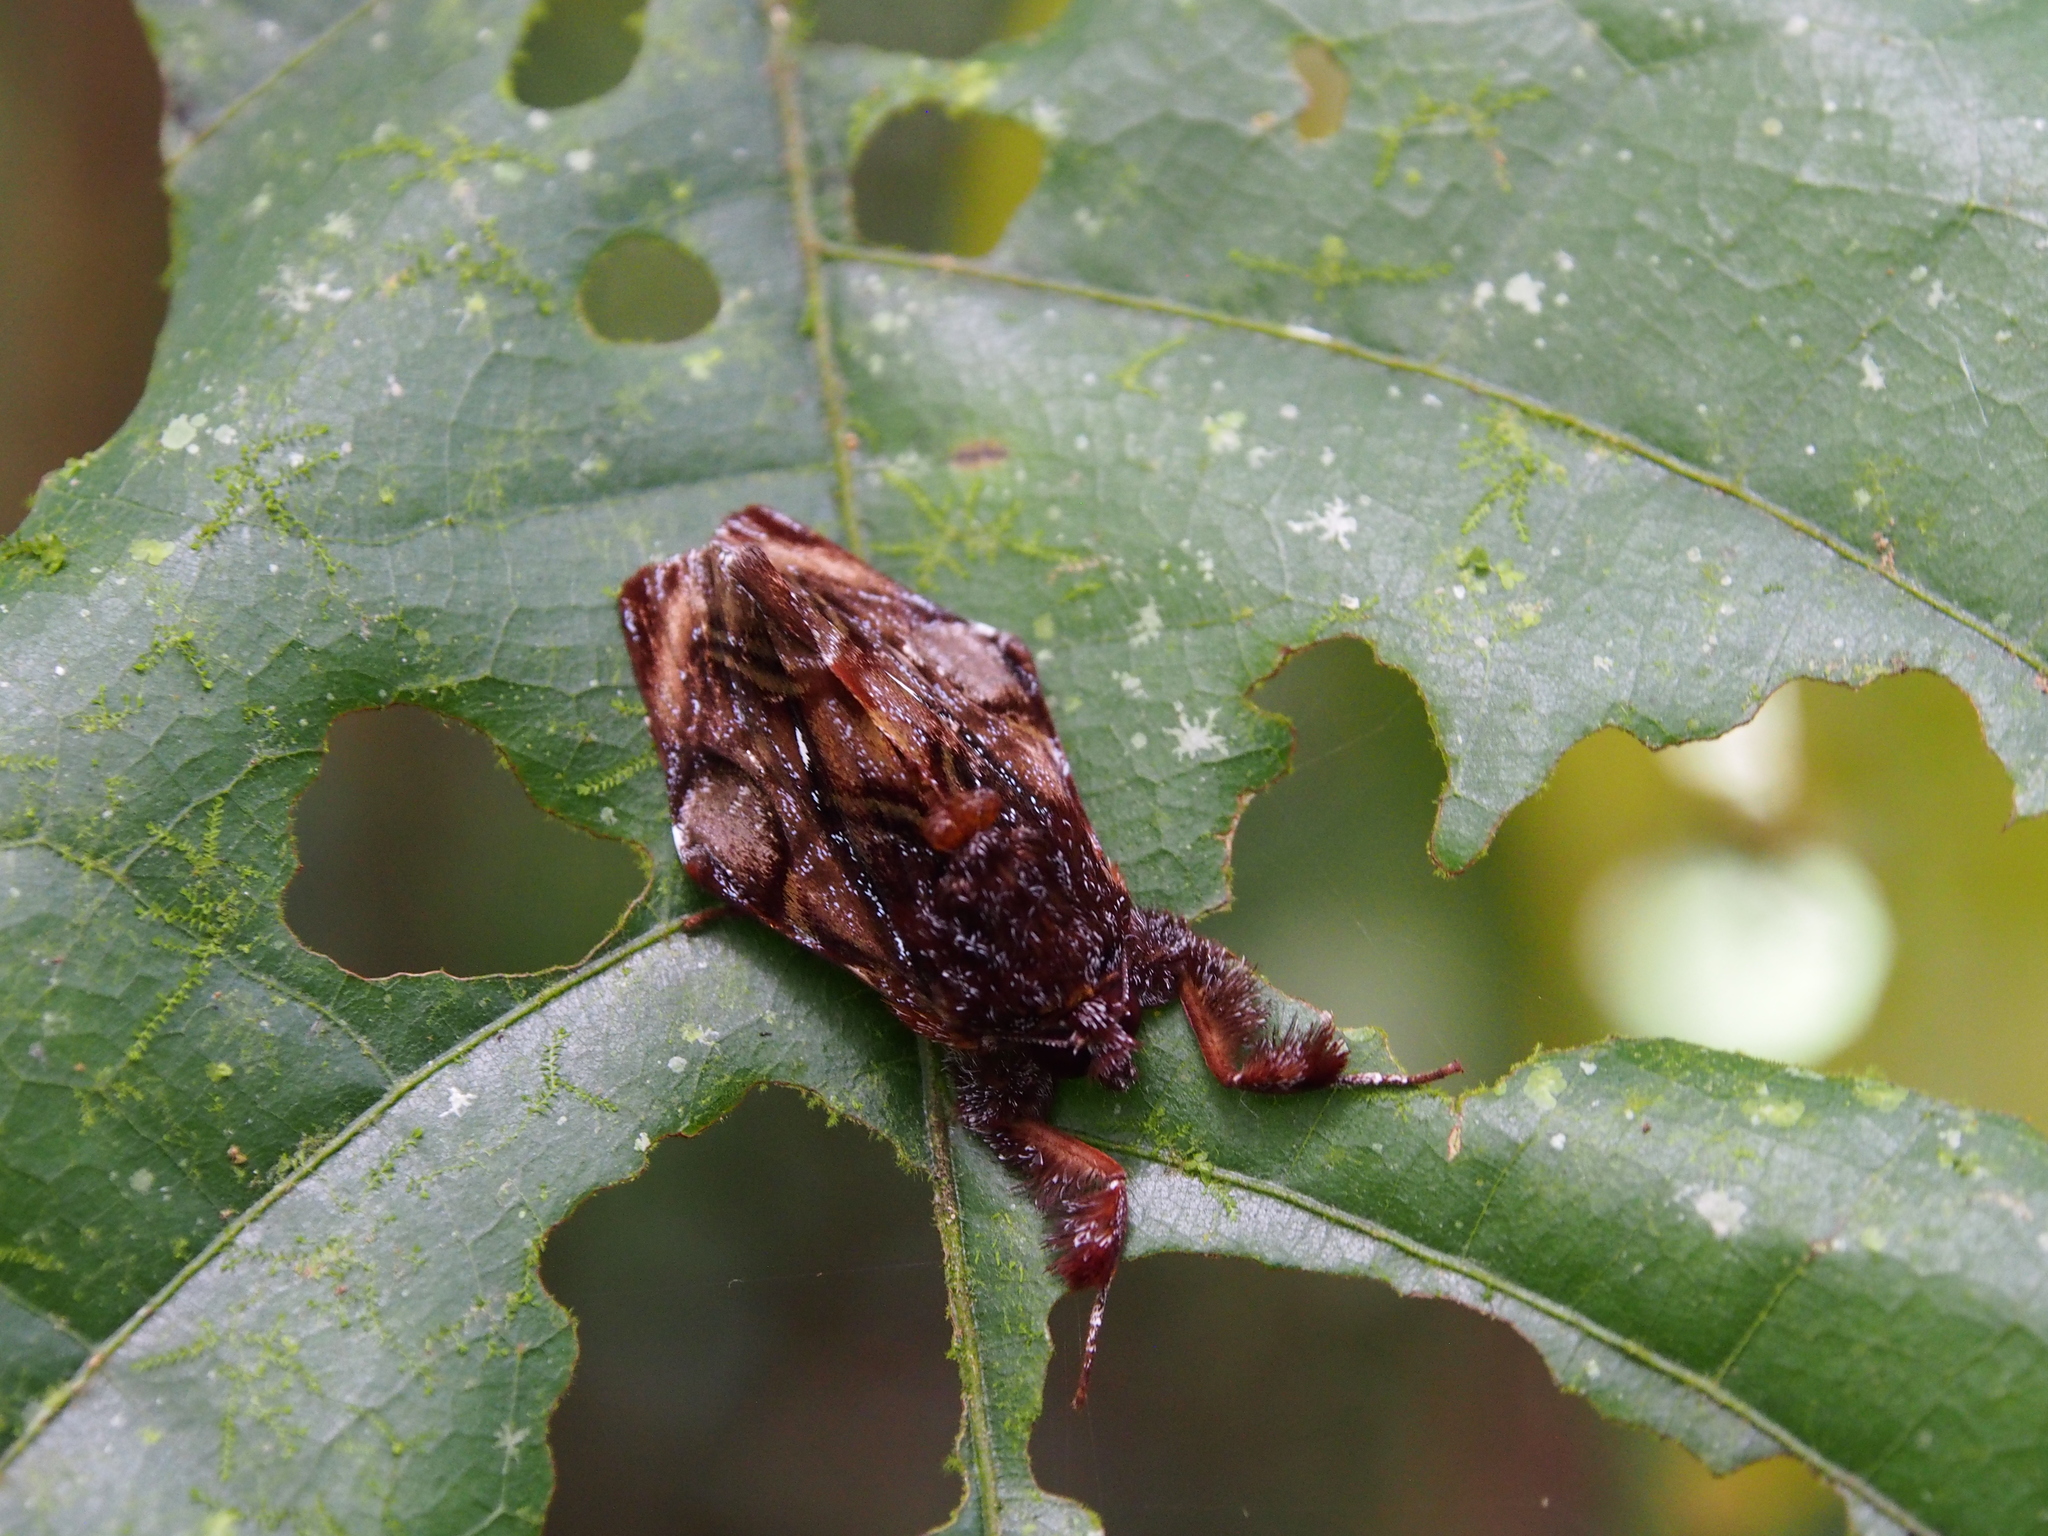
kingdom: Animalia
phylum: Arthropoda
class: Insecta
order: Lepidoptera
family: Noctuidae
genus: Darceta
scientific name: Darceta falcata
